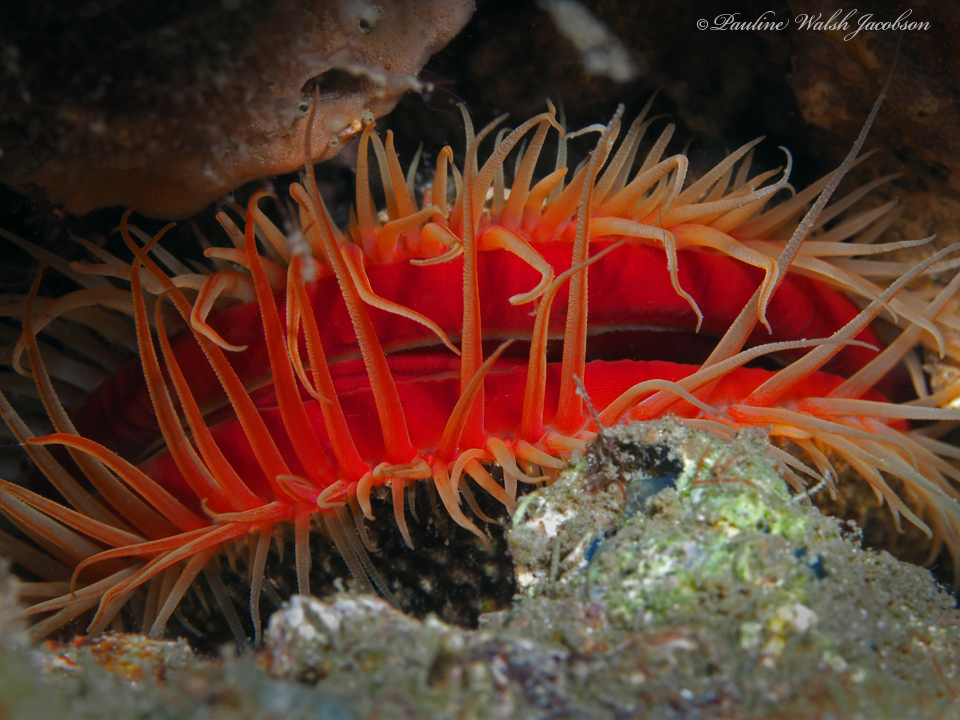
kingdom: Animalia
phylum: Mollusca
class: Bivalvia
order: Limida
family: Limidae
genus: Ctenoides
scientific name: Ctenoides scaber
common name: Rough fileclam
